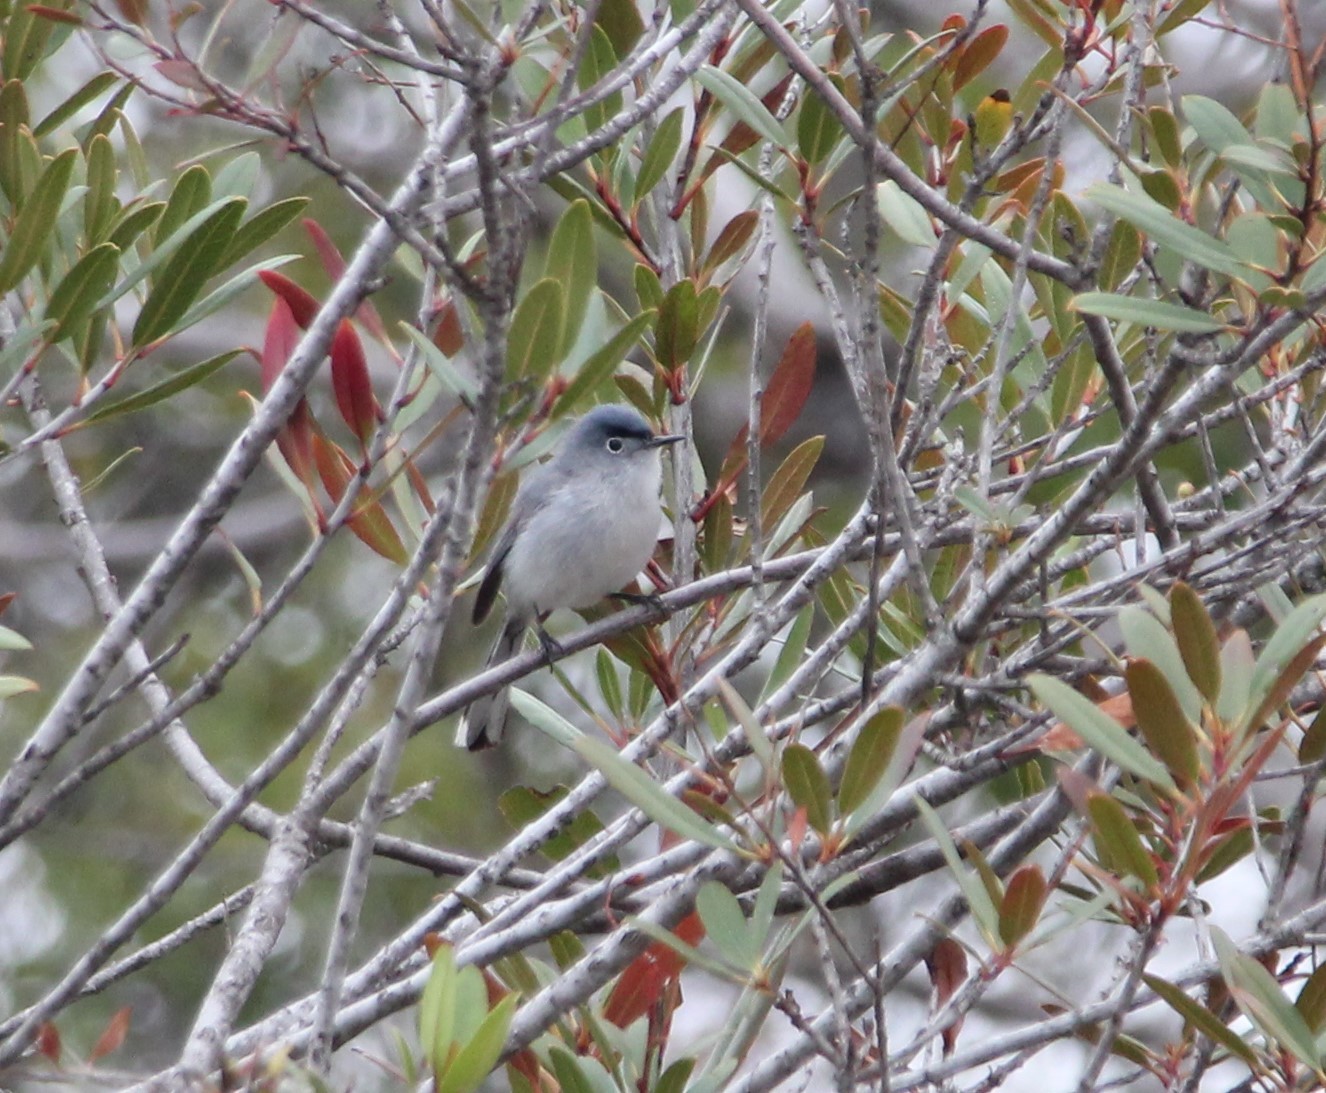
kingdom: Animalia
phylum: Chordata
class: Aves
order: Passeriformes
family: Polioptilidae
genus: Polioptila
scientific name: Polioptila caerulea
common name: Blue-gray gnatcatcher
